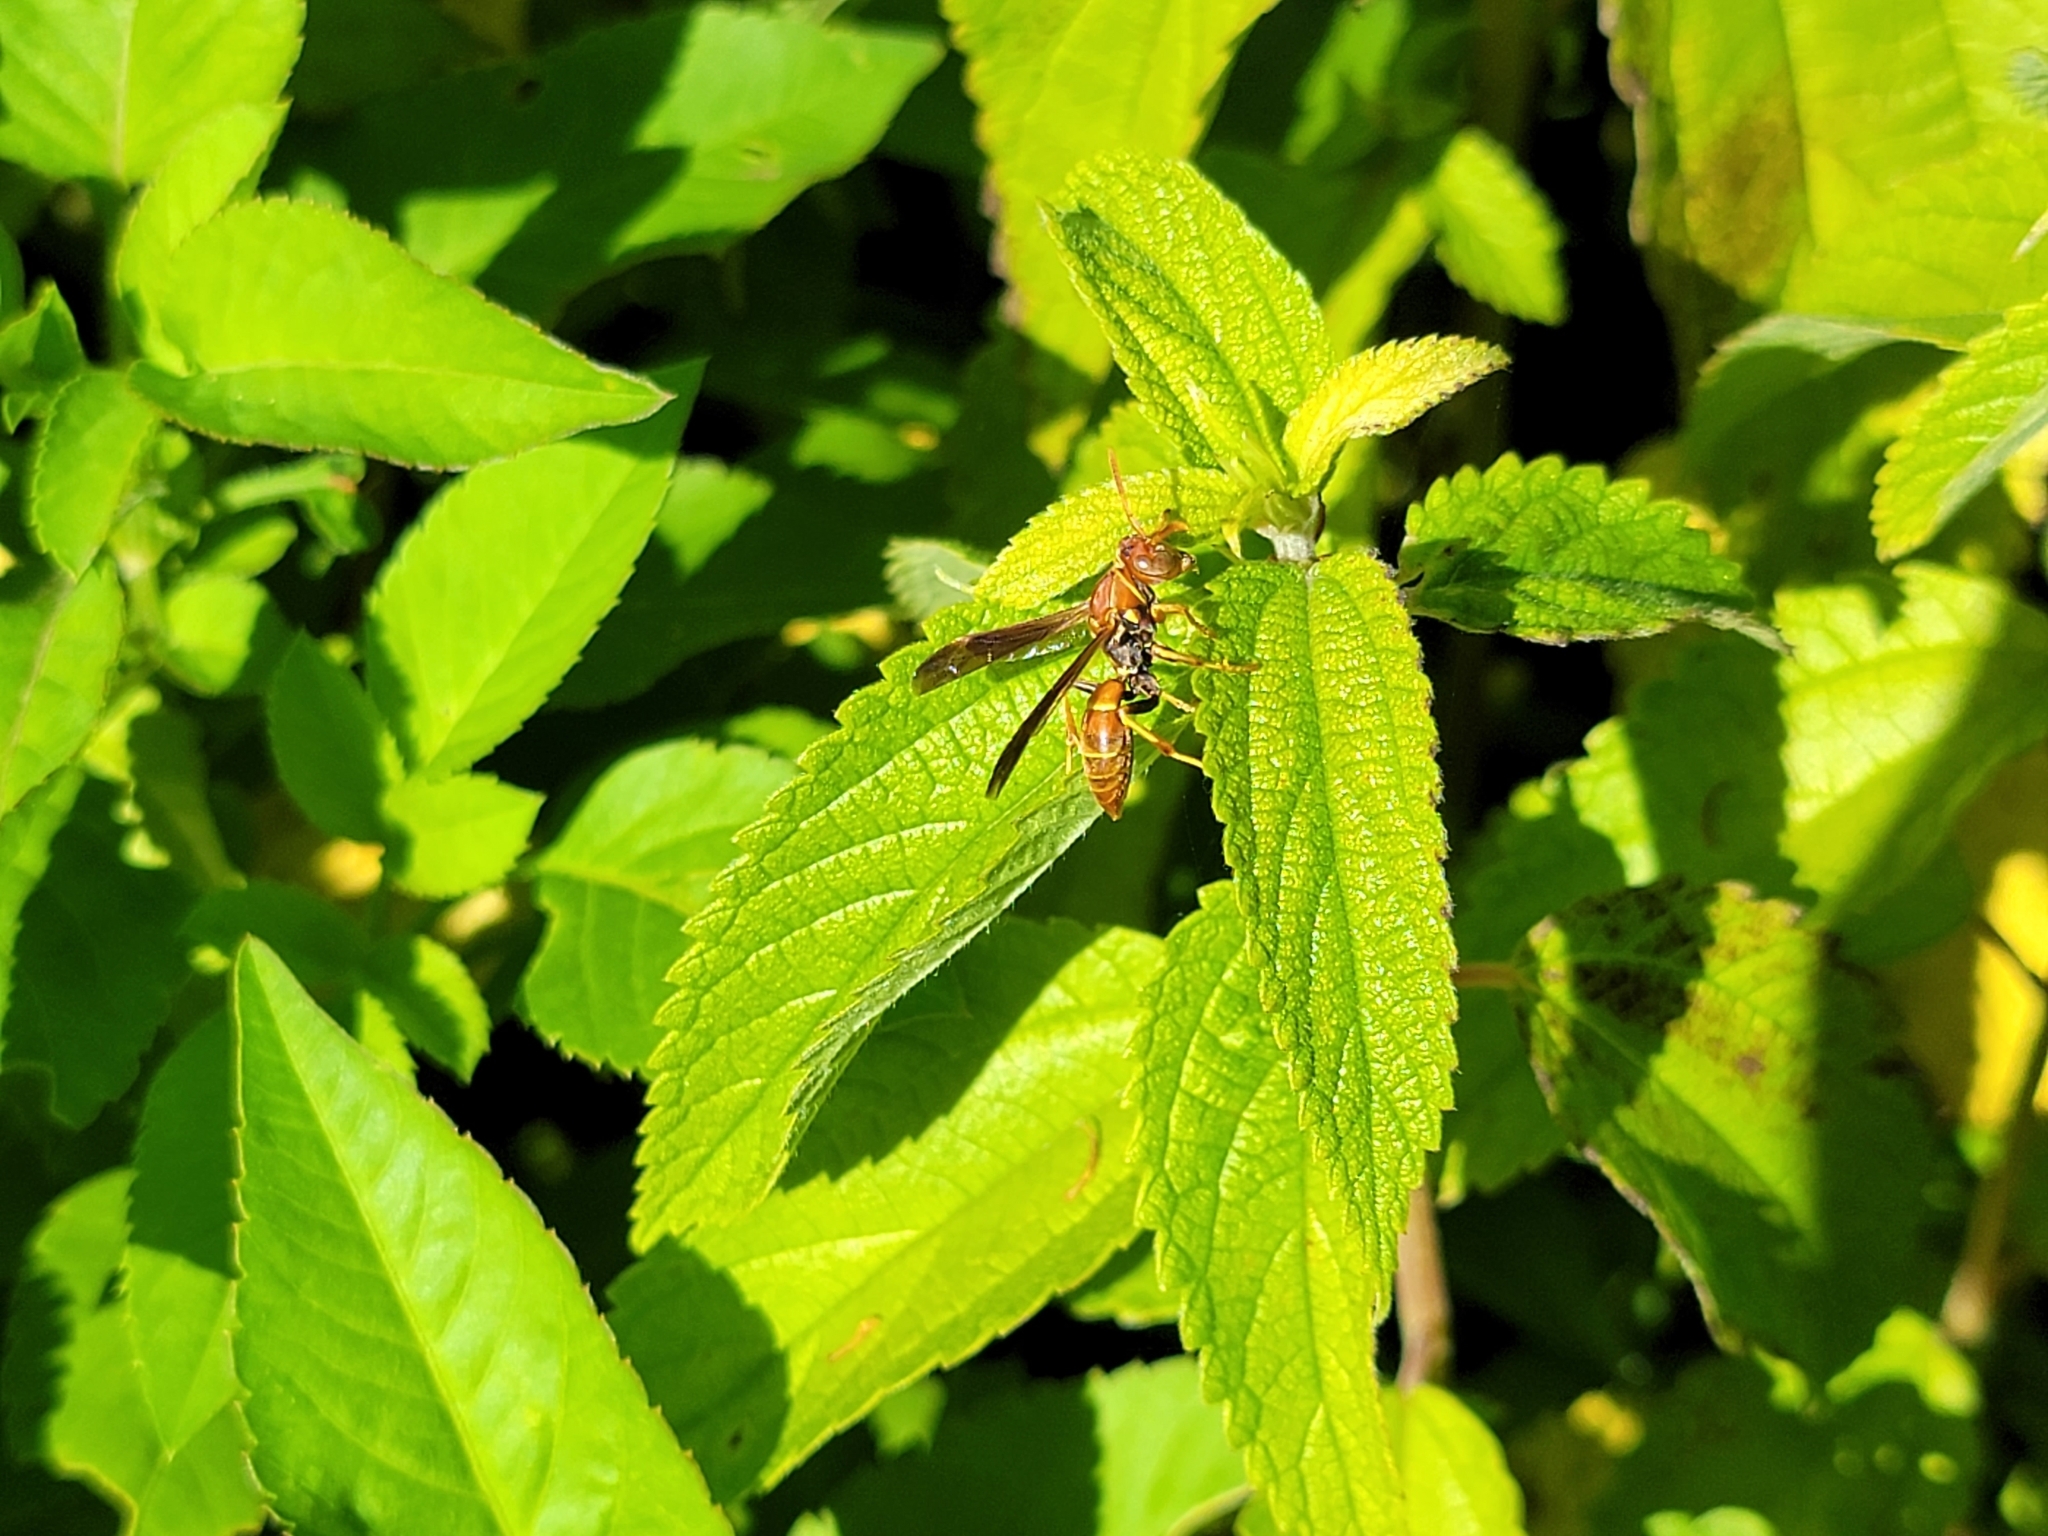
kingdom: Animalia
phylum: Arthropoda
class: Insecta
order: Hymenoptera
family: Eumenidae
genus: Polistes
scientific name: Polistes dorsalis
